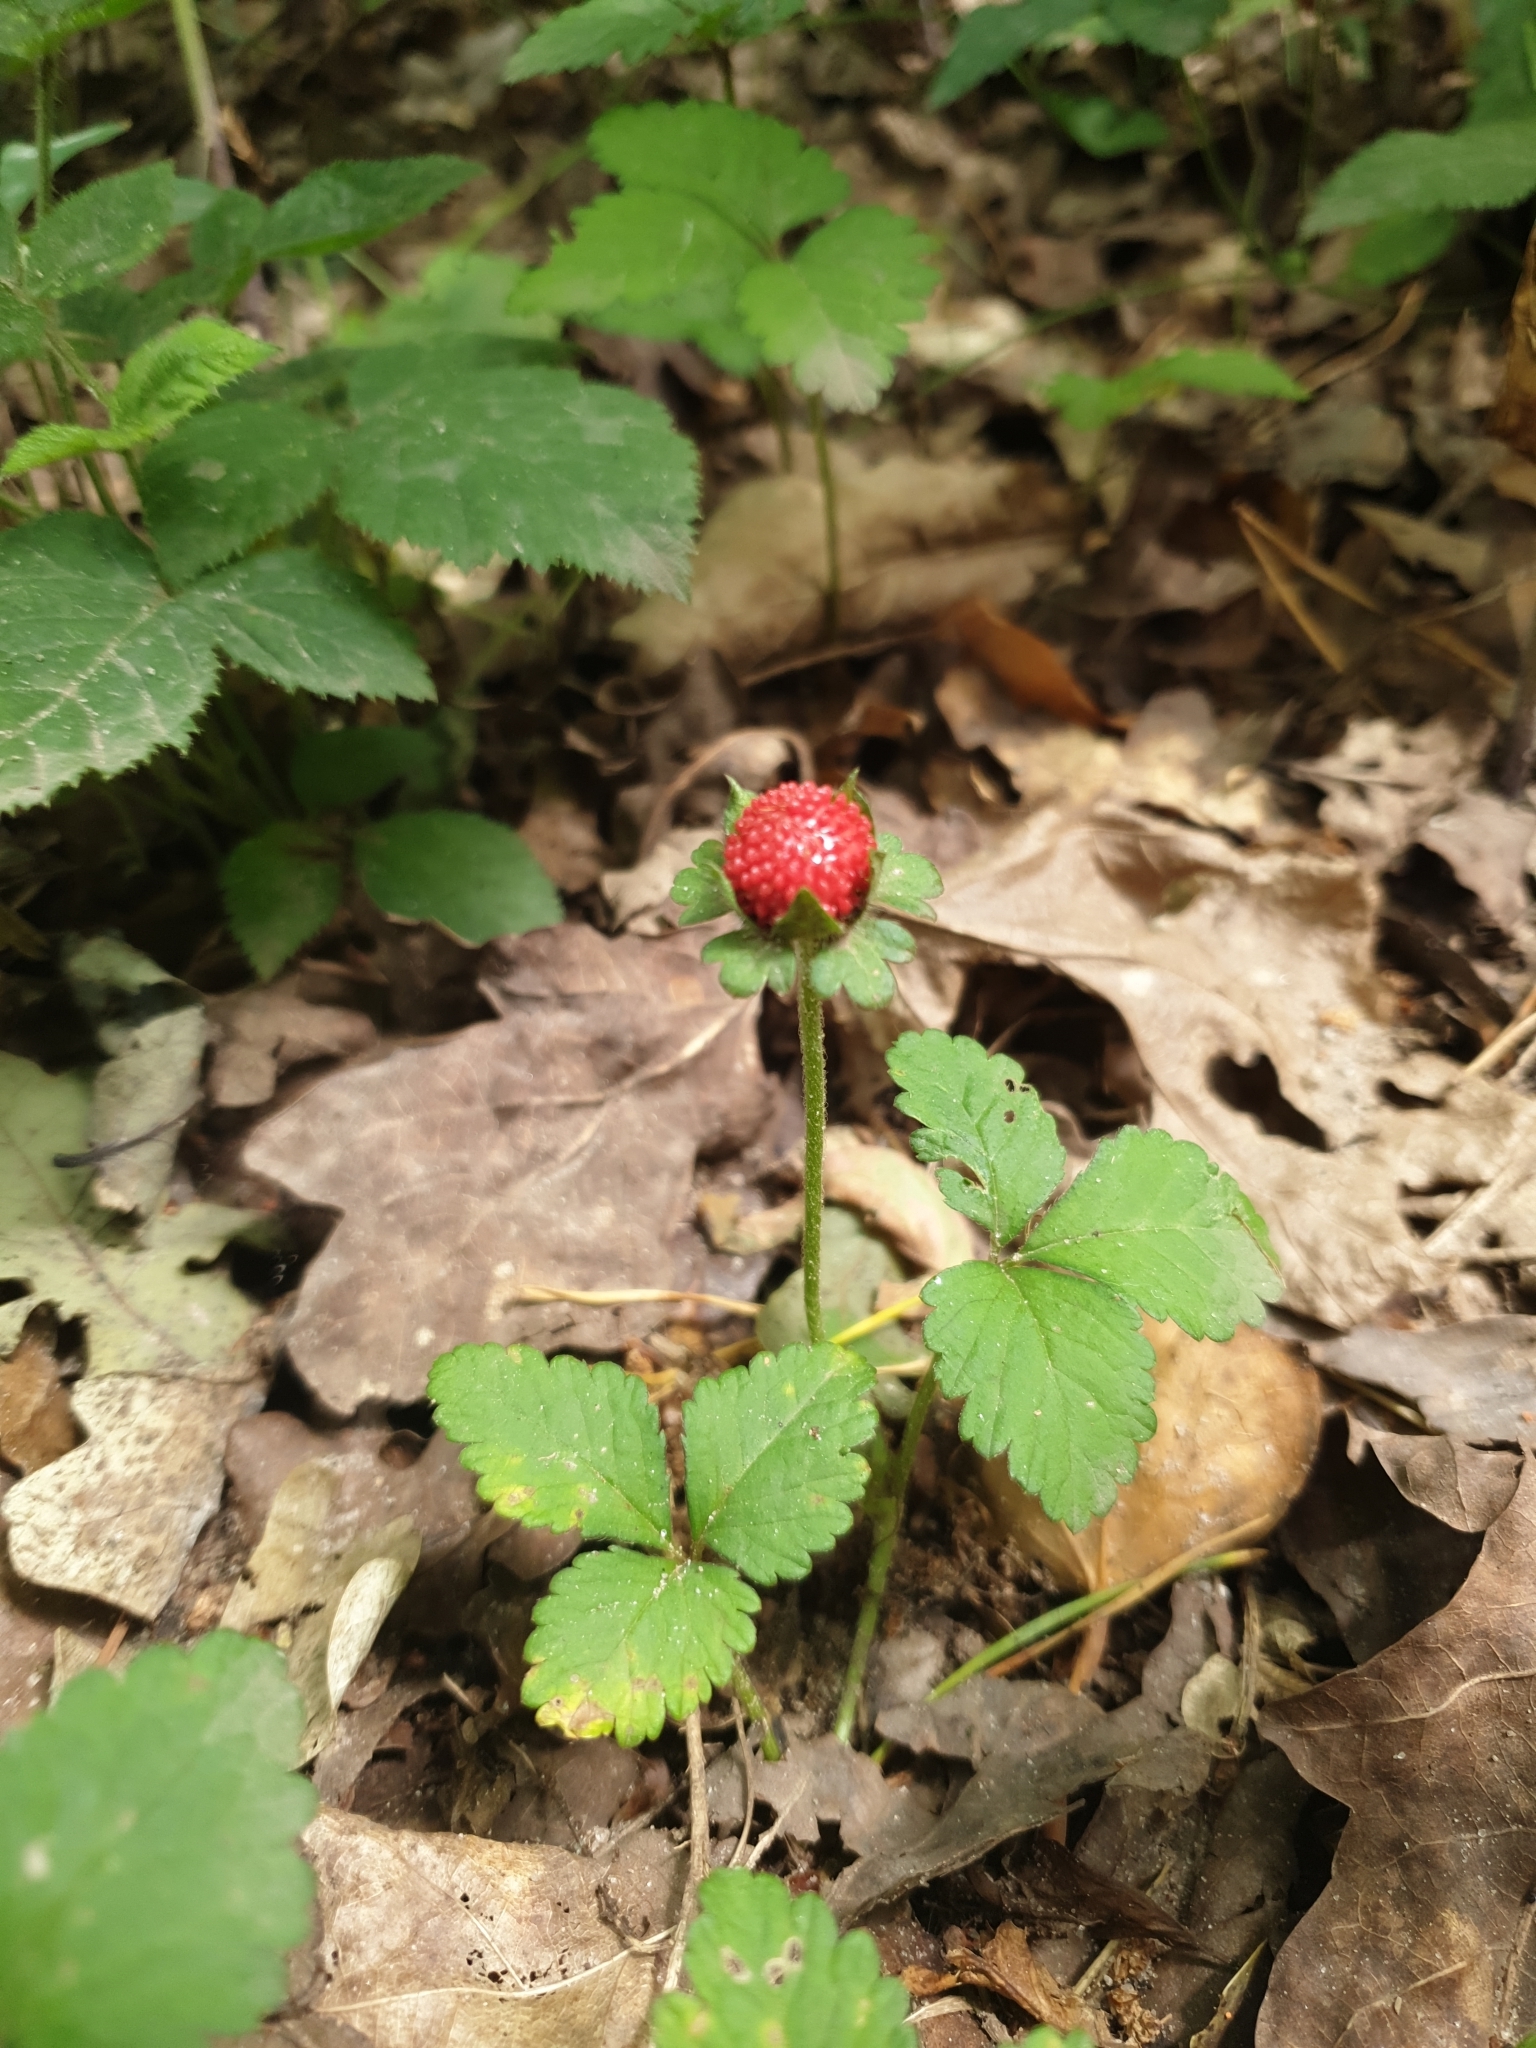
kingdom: Plantae
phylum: Tracheophyta
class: Magnoliopsida
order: Rosales
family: Rosaceae
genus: Potentilla
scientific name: Potentilla indica
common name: Yellow-flowered strawberry
